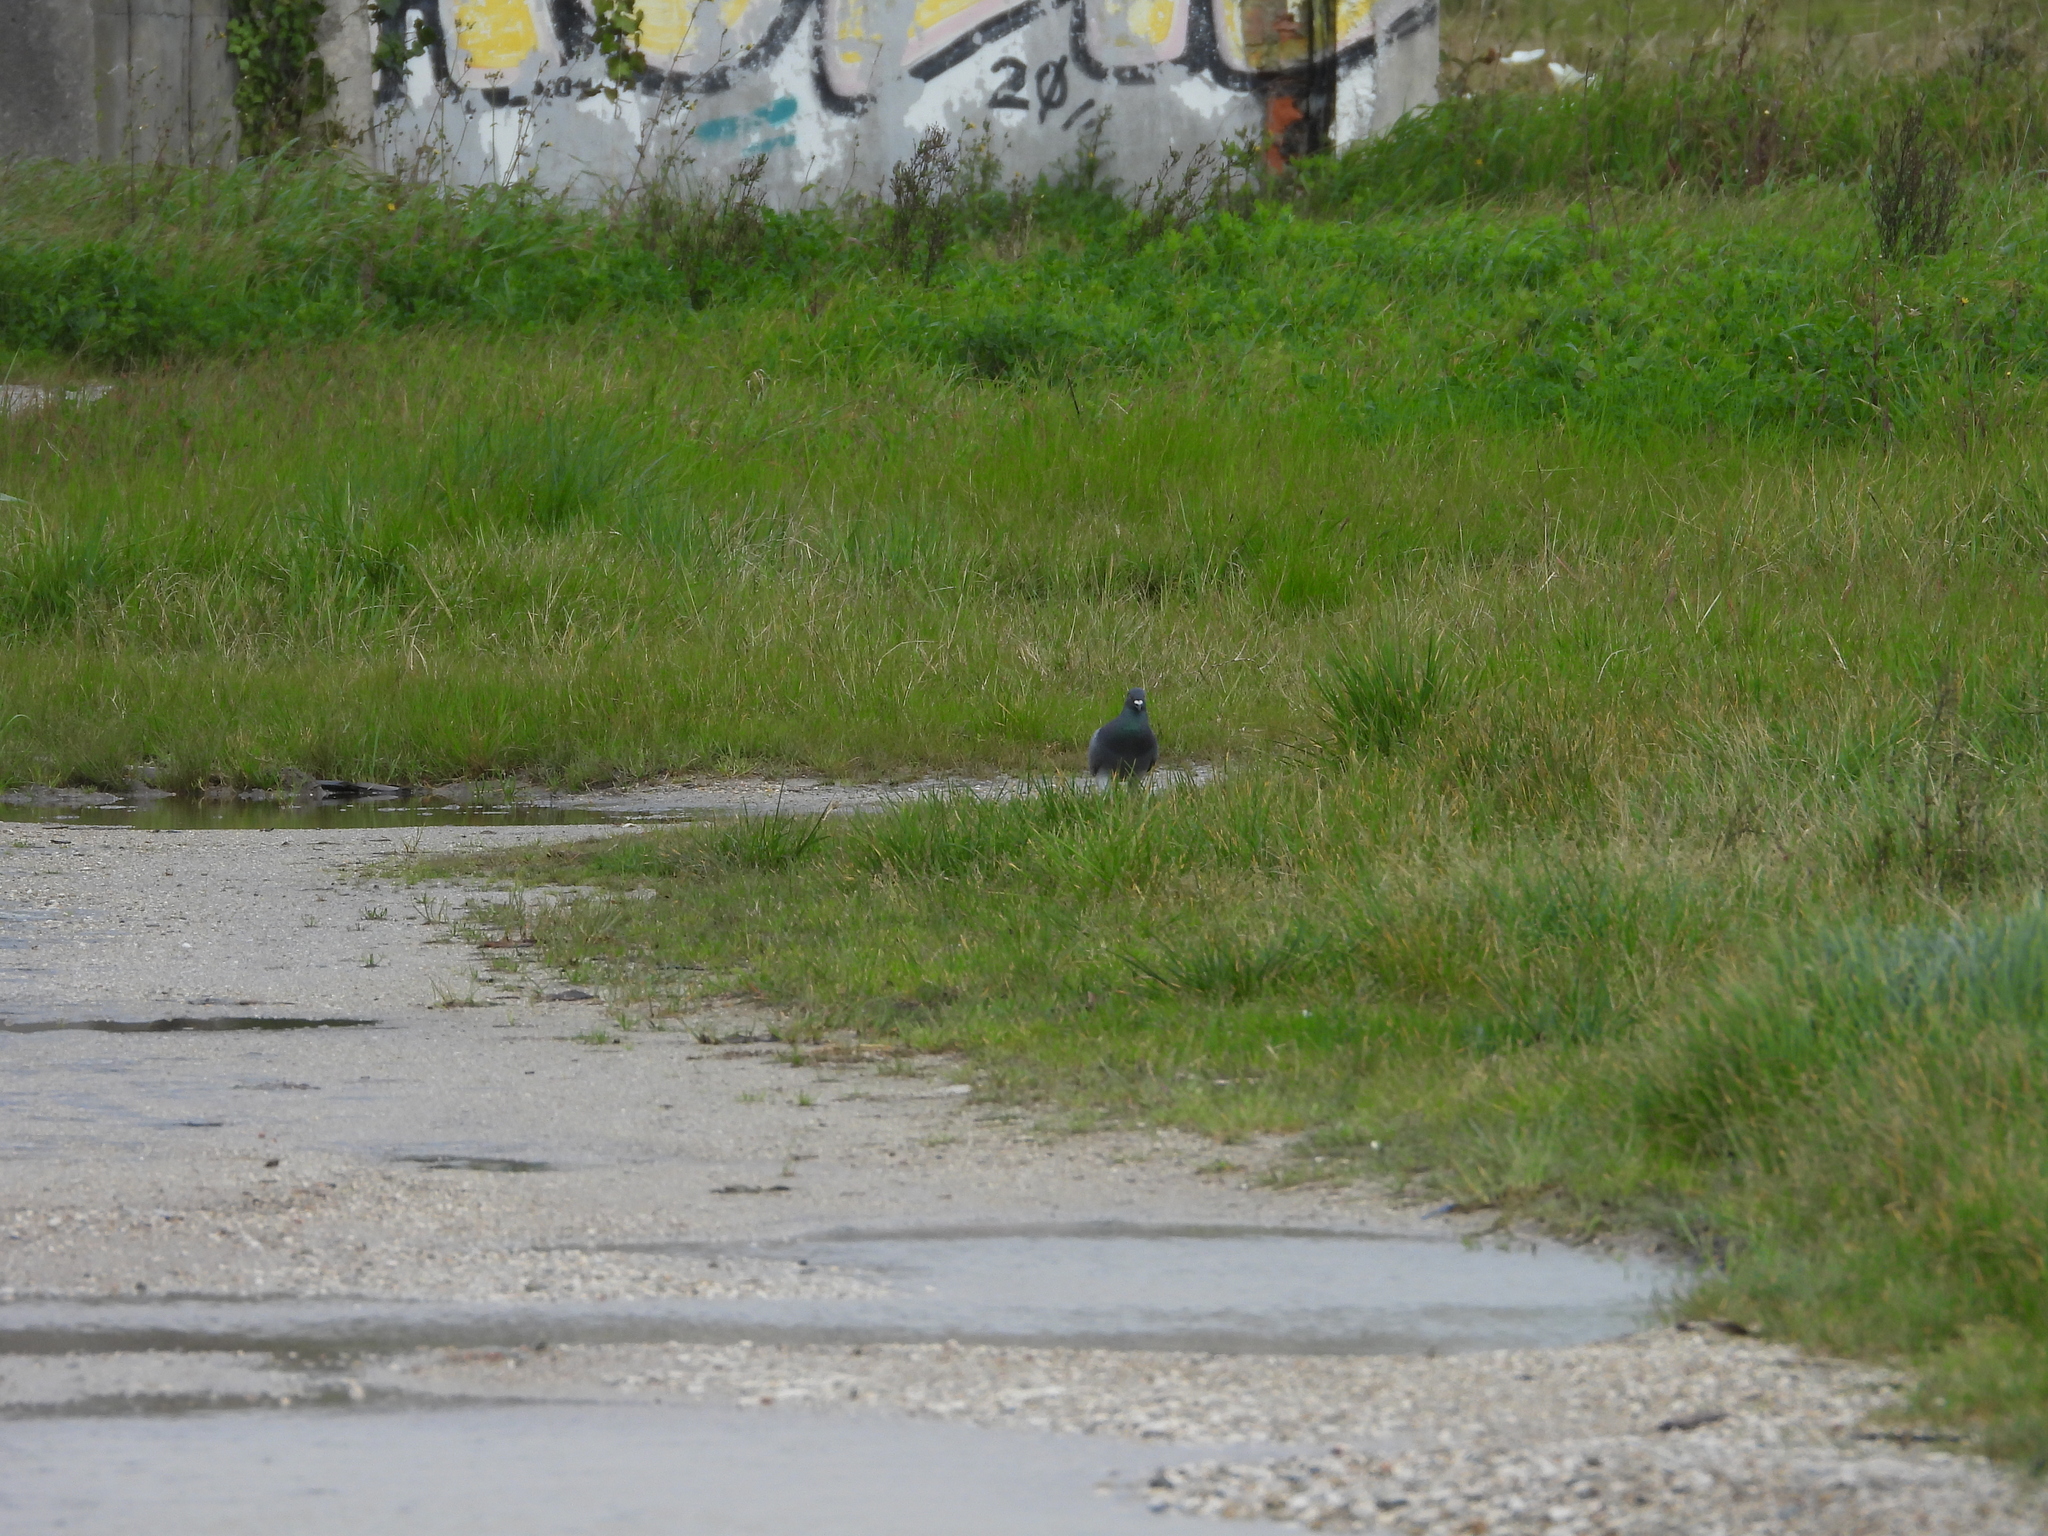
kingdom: Animalia
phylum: Chordata
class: Aves
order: Columbiformes
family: Columbidae
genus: Columba
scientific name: Columba livia
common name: Rock pigeon
